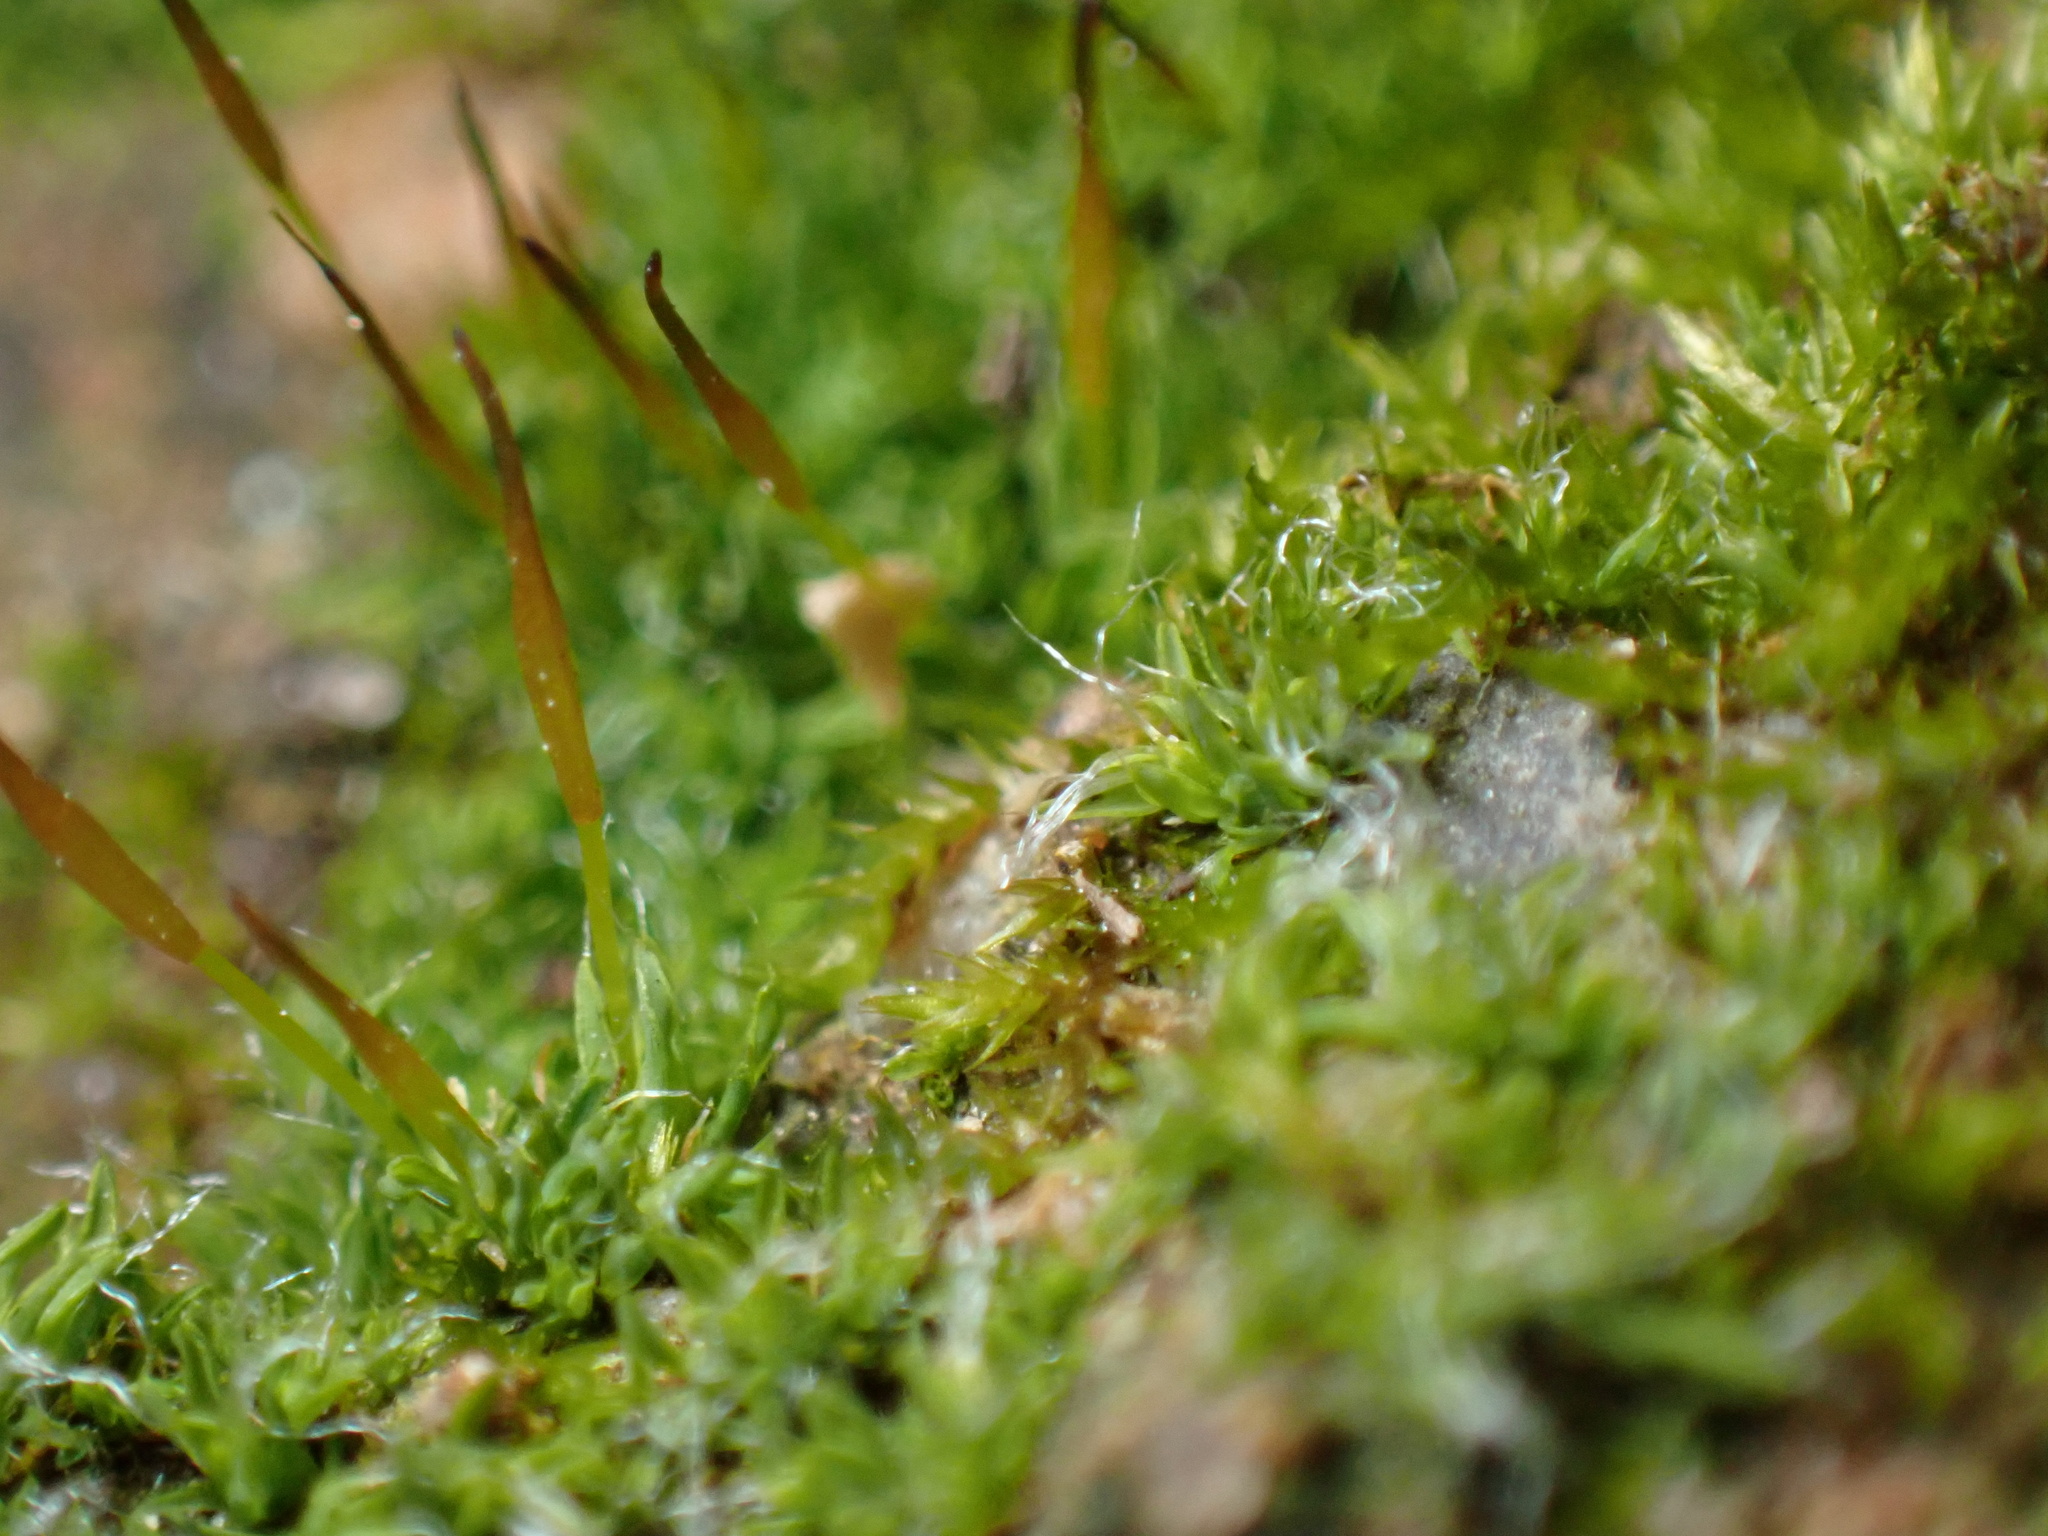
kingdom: Plantae
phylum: Bryophyta
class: Bryopsida
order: Pottiales
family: Pottiaceae
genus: Tortula
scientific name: Tortula muralis
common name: Wall screw-moss
